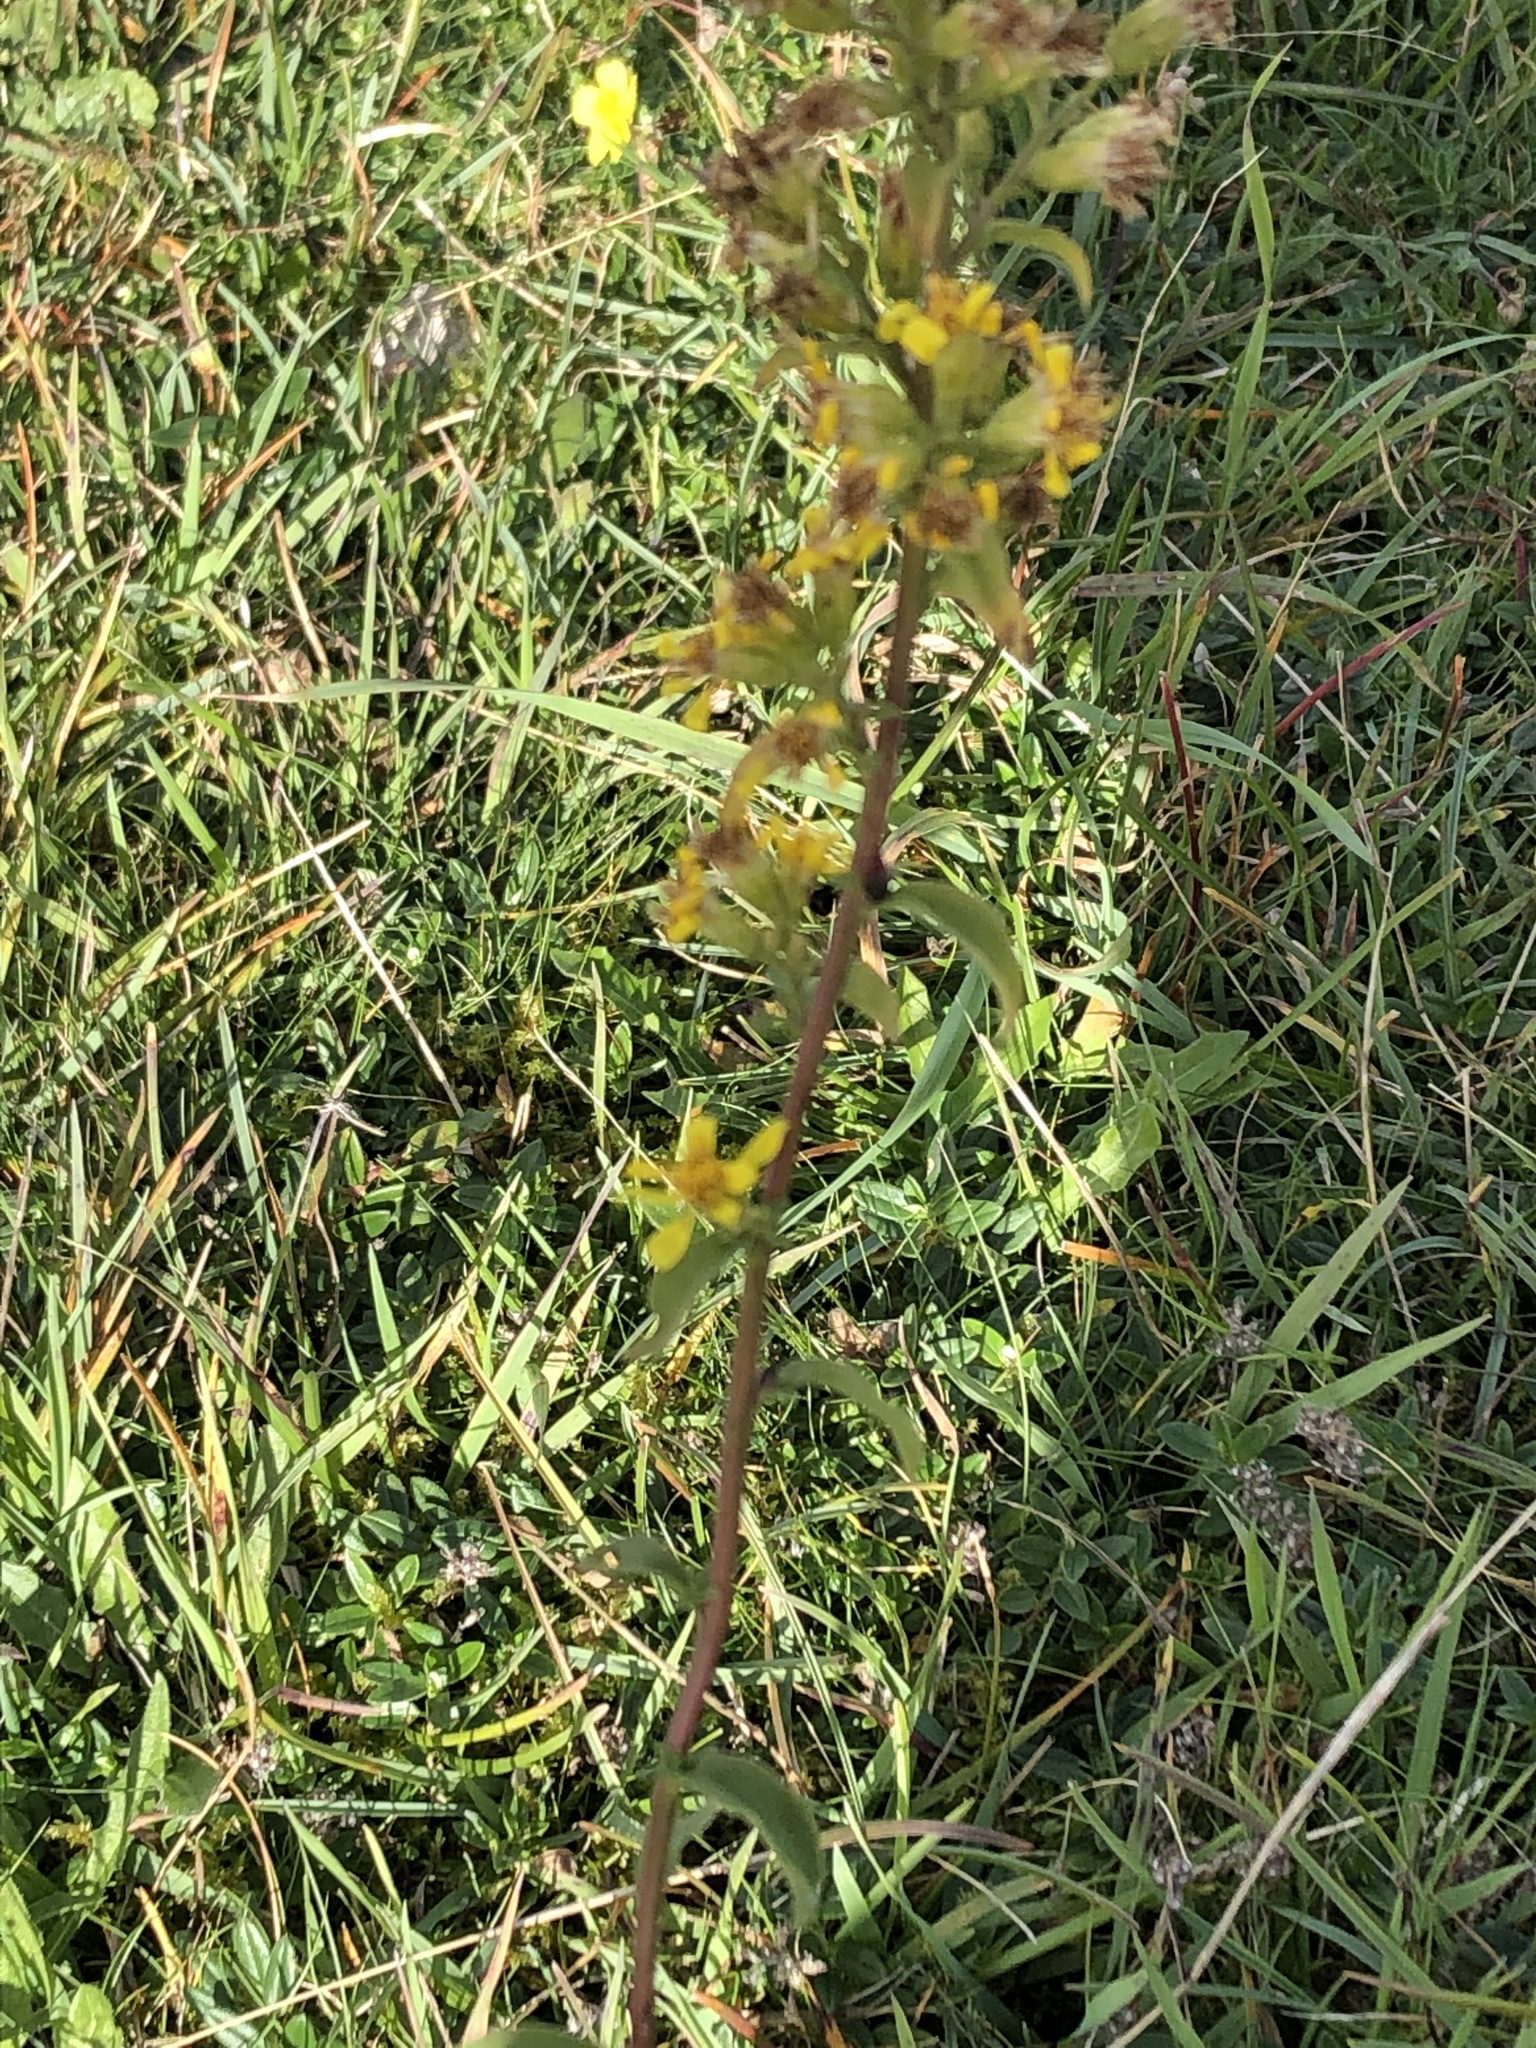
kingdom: Plantae
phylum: Tracheophyta
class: Magnoliopsida
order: Asterales
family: Asteraceae
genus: Solidago
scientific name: Solidago virgaurea
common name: Goldenrod
